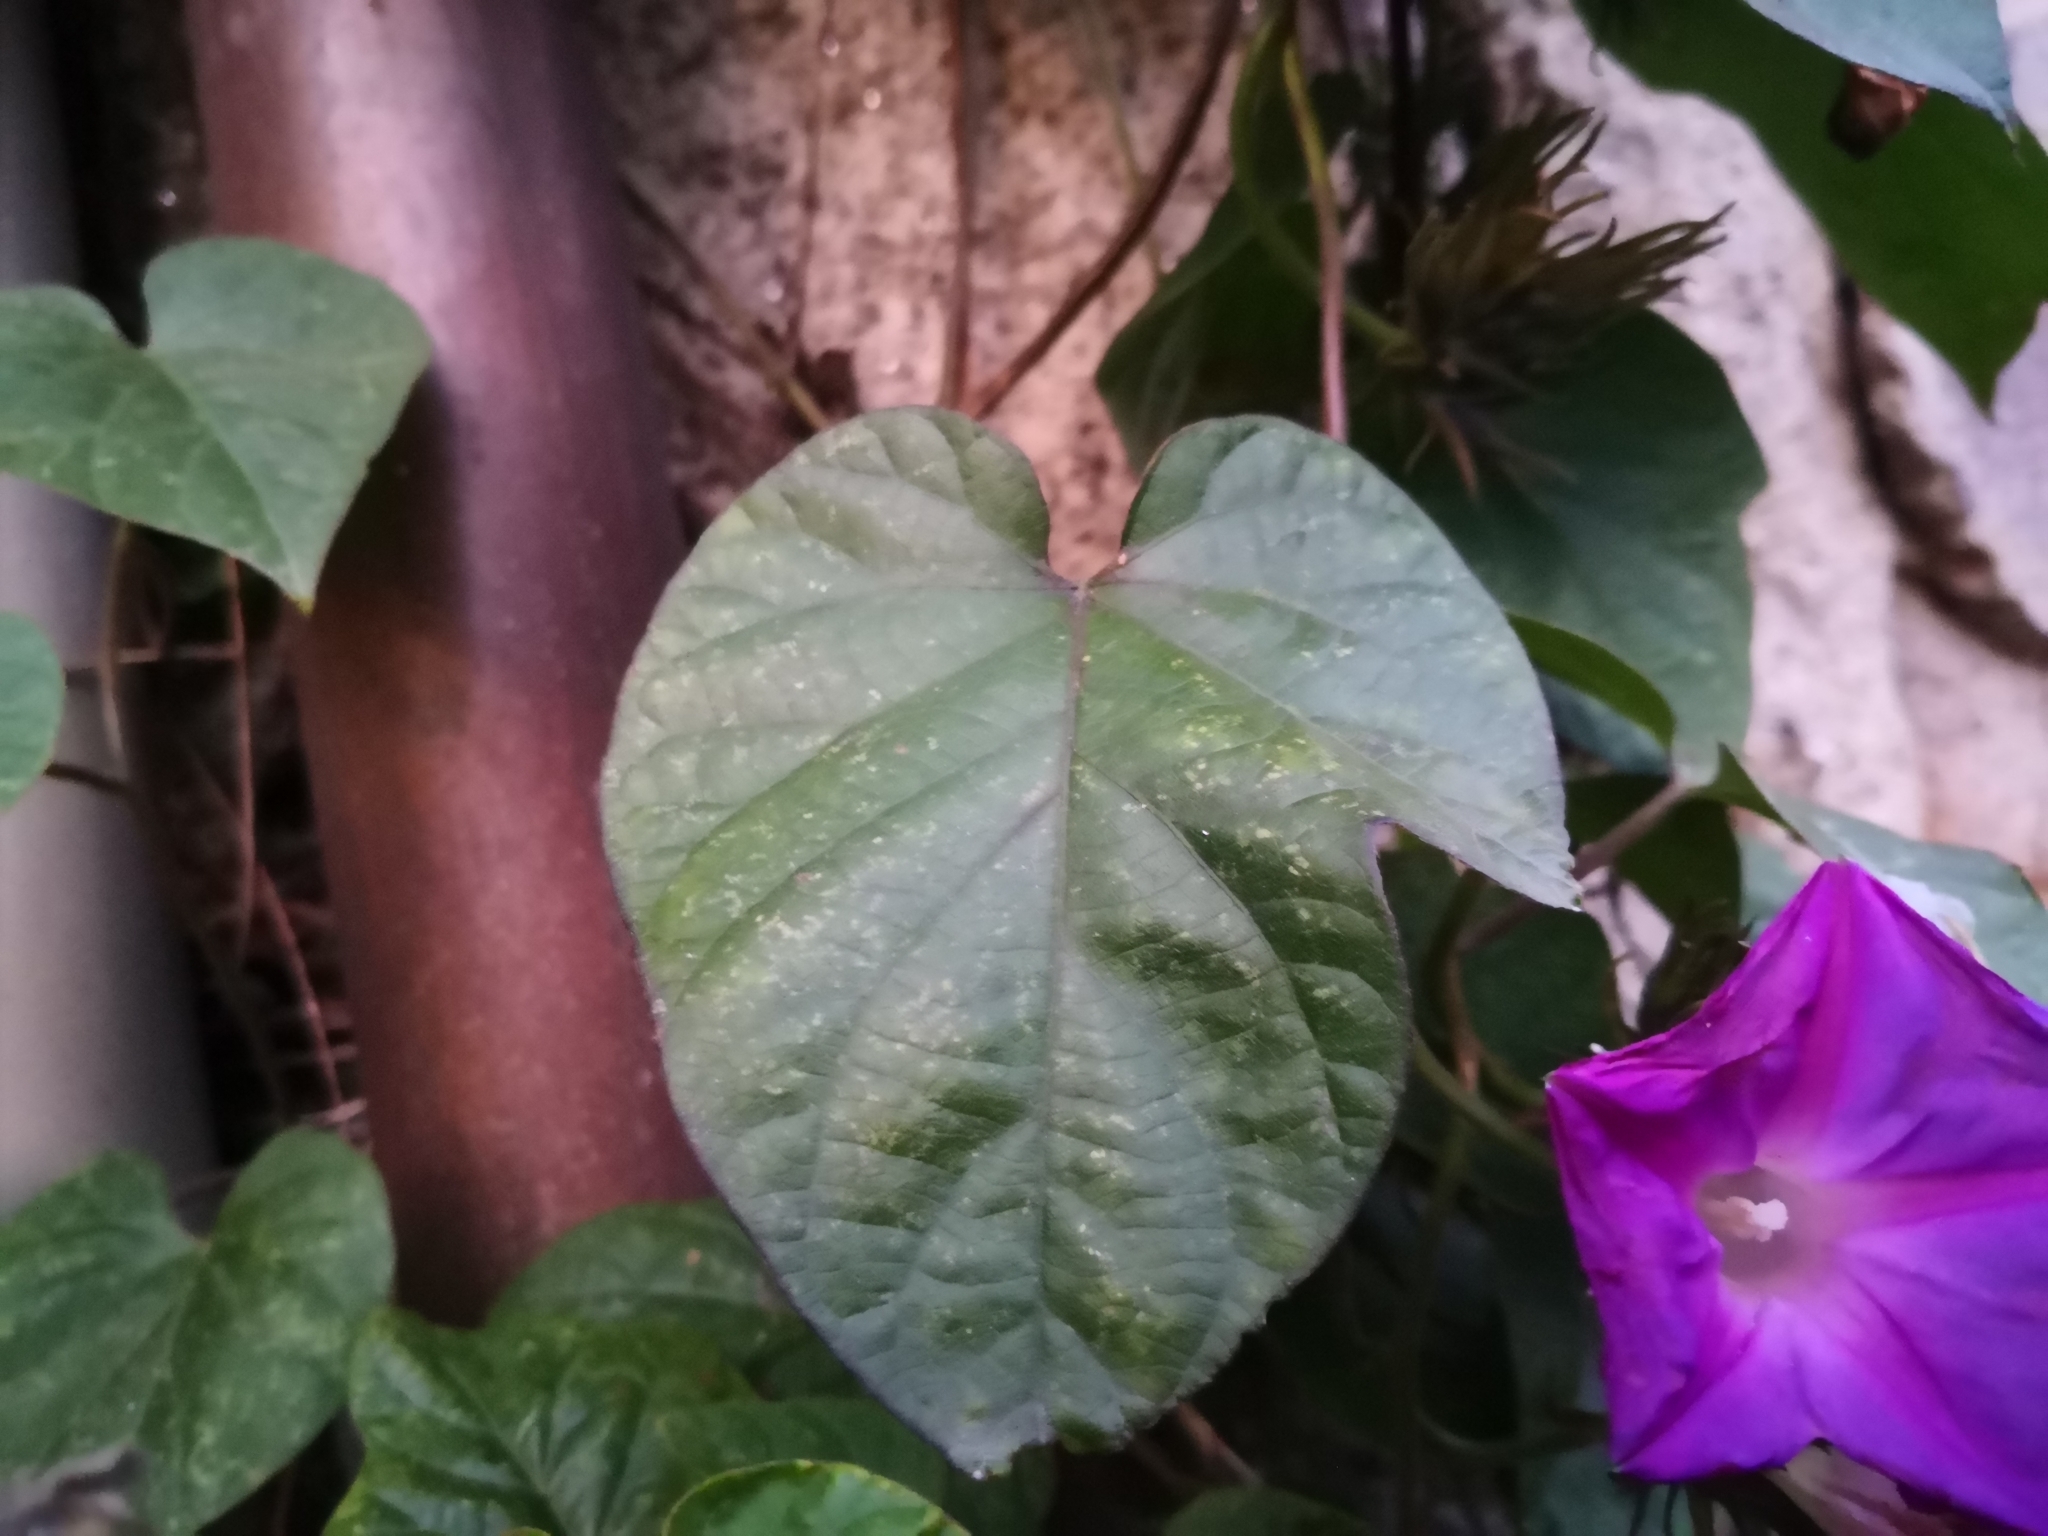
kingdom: Plantae
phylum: Tracheophyta
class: Magnoliopsida
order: Solanales
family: Convolvulaceae
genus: Ipomoea
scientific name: Ipomoea indica
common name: Blue dawnflower
